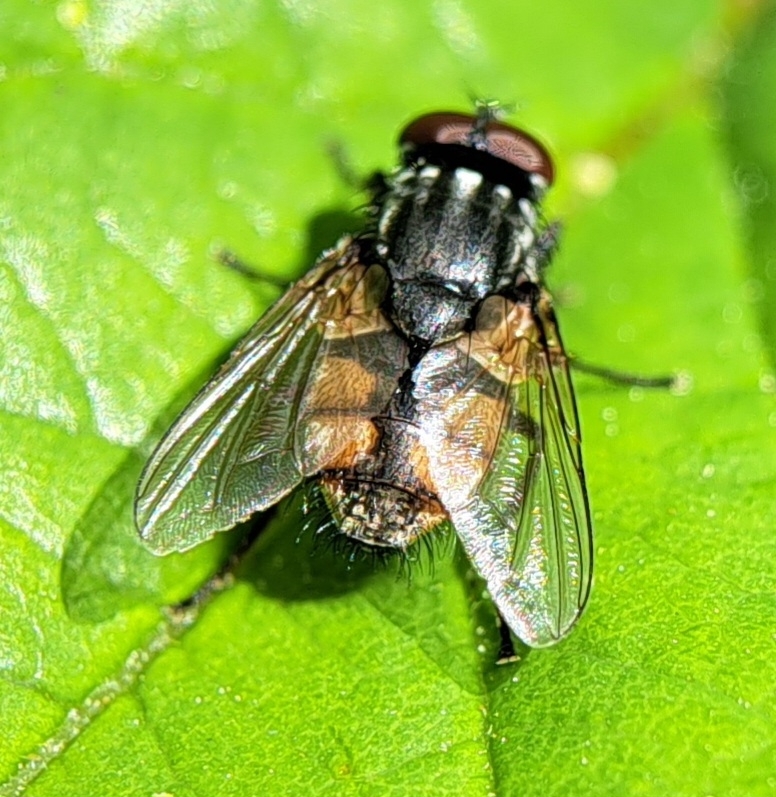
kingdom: Animalia
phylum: Arthropoda
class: Insecta
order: Diptera
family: Muscidae
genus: Musca
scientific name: Musca autumnalis
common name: Face fly
